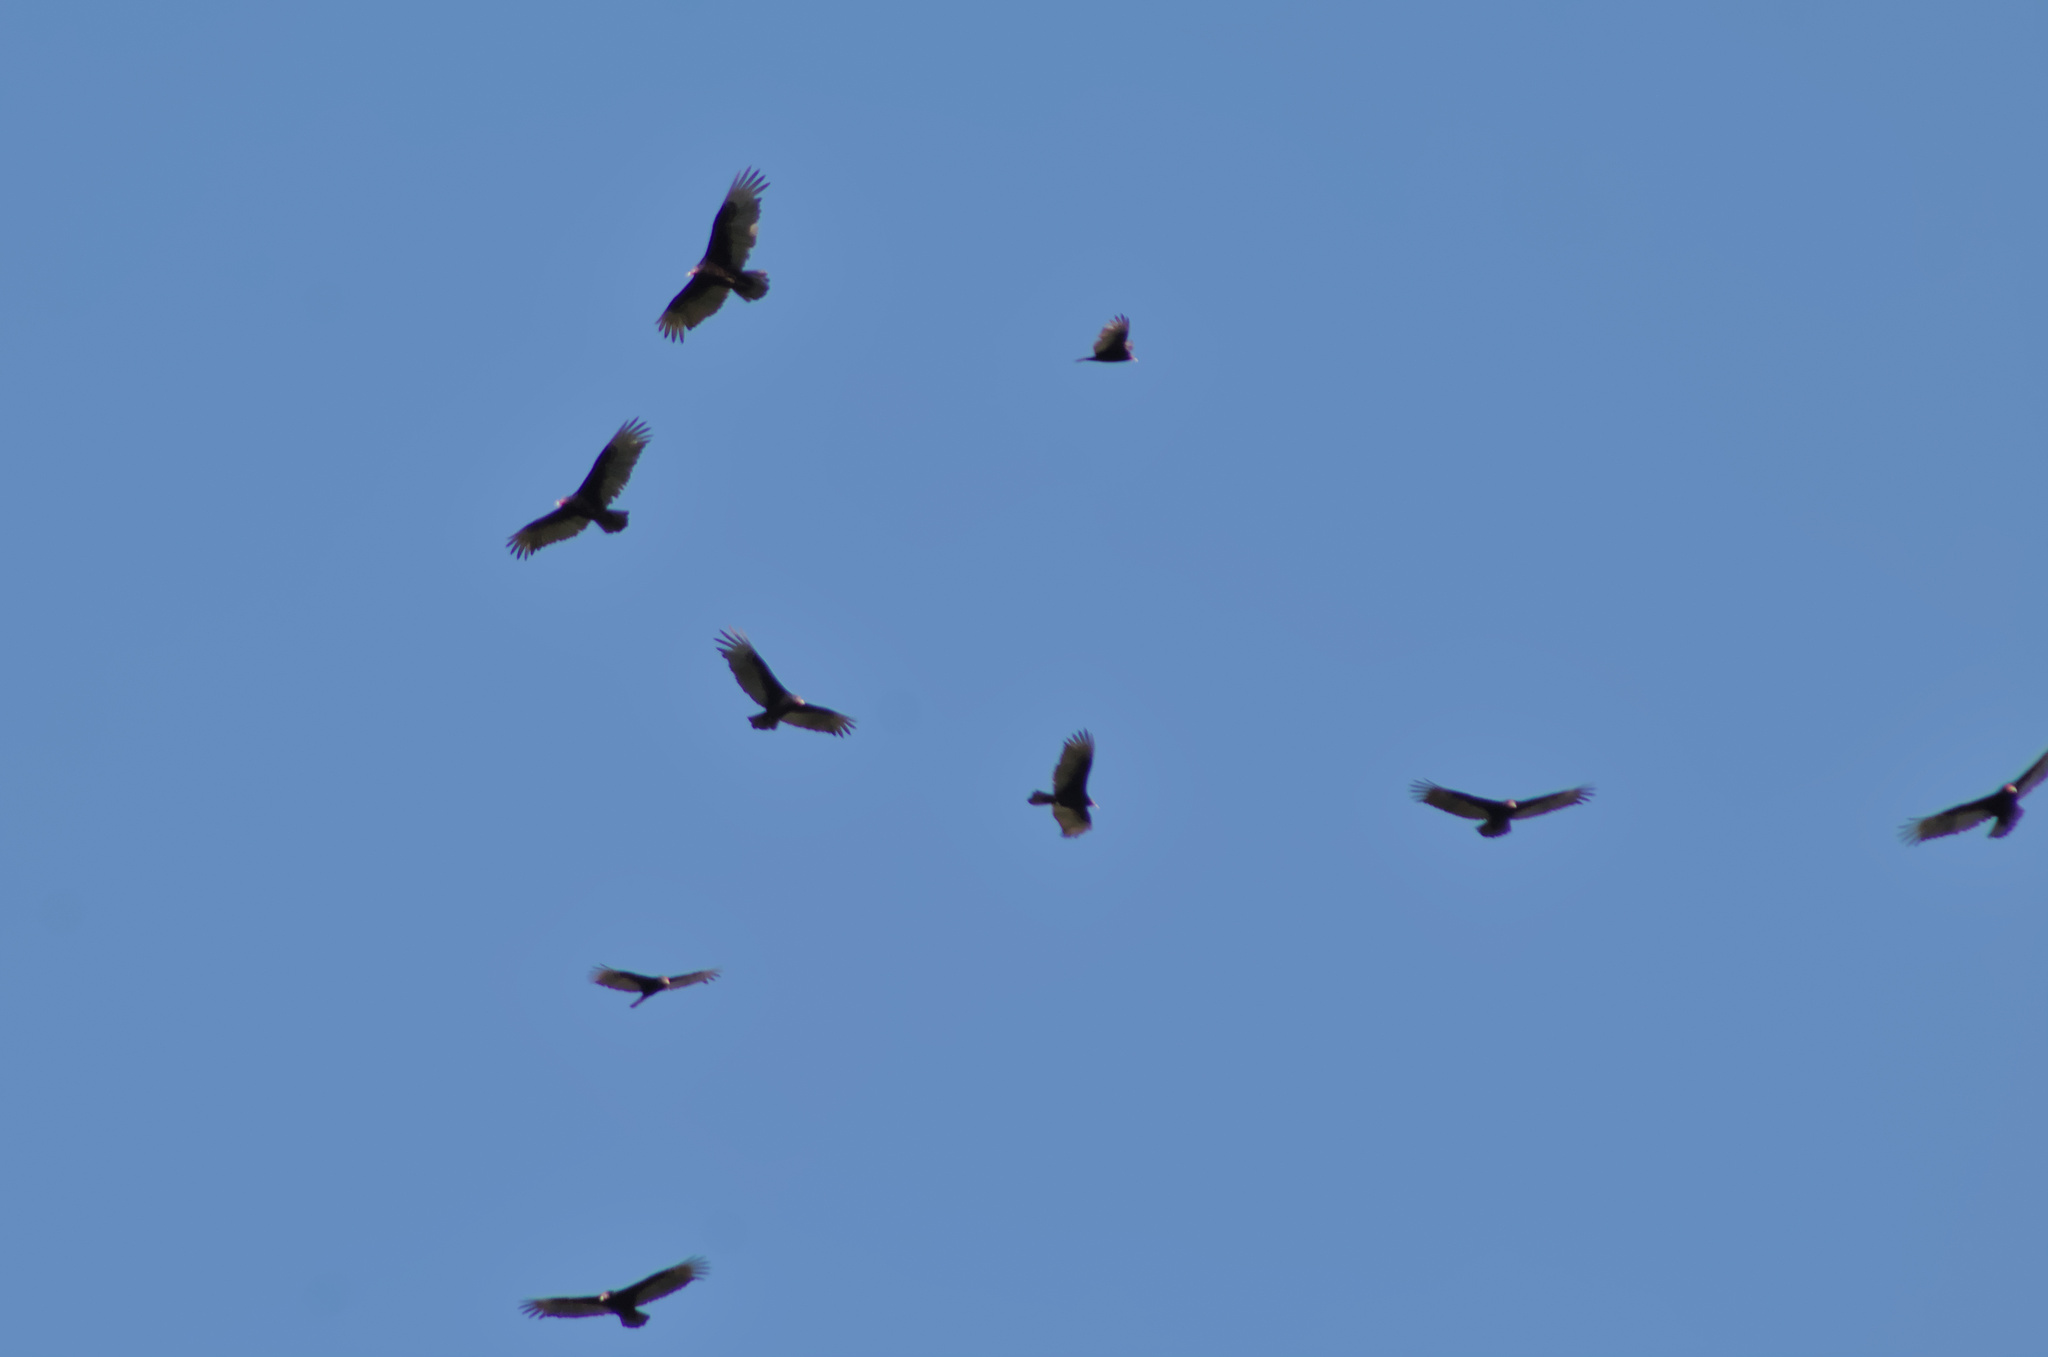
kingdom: Animalia
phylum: Chordata
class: Aves
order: Accipitriformes
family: Cathartidae
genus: Cathartes
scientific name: Cathartes aura
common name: Turkey vulture
